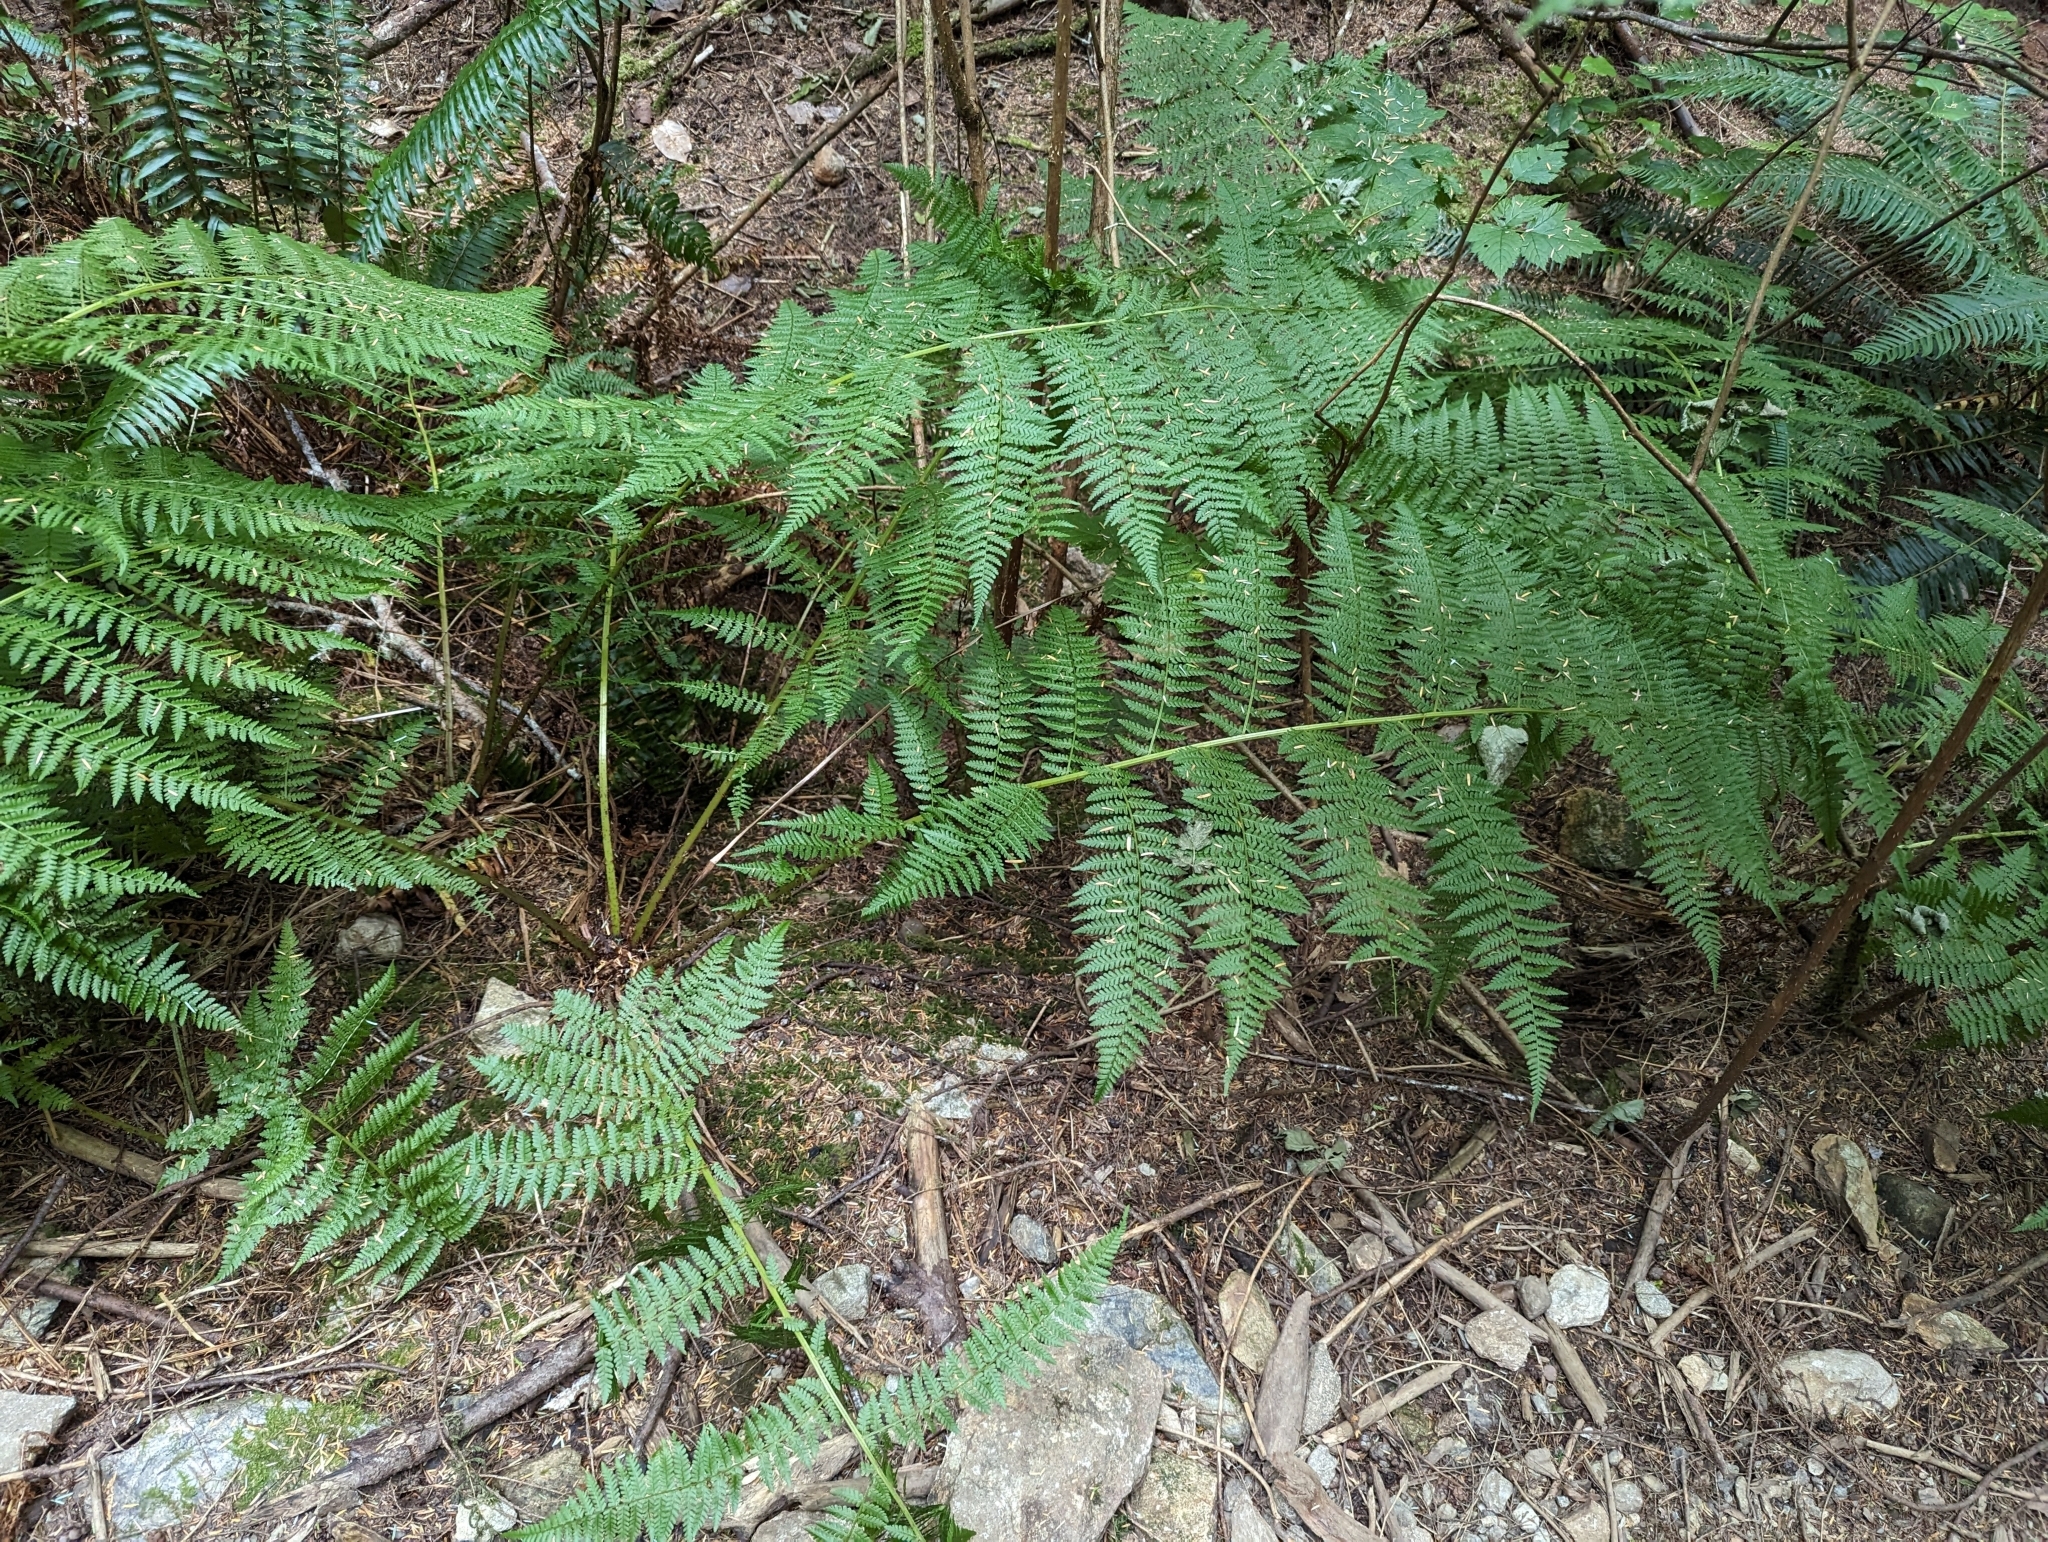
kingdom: Plantae
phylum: Tracheophyta
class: Polypodiopsida
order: Polypodiales
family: Athyriaceae
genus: Athyrium
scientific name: Athyrium filix-femina
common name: Lady fern
